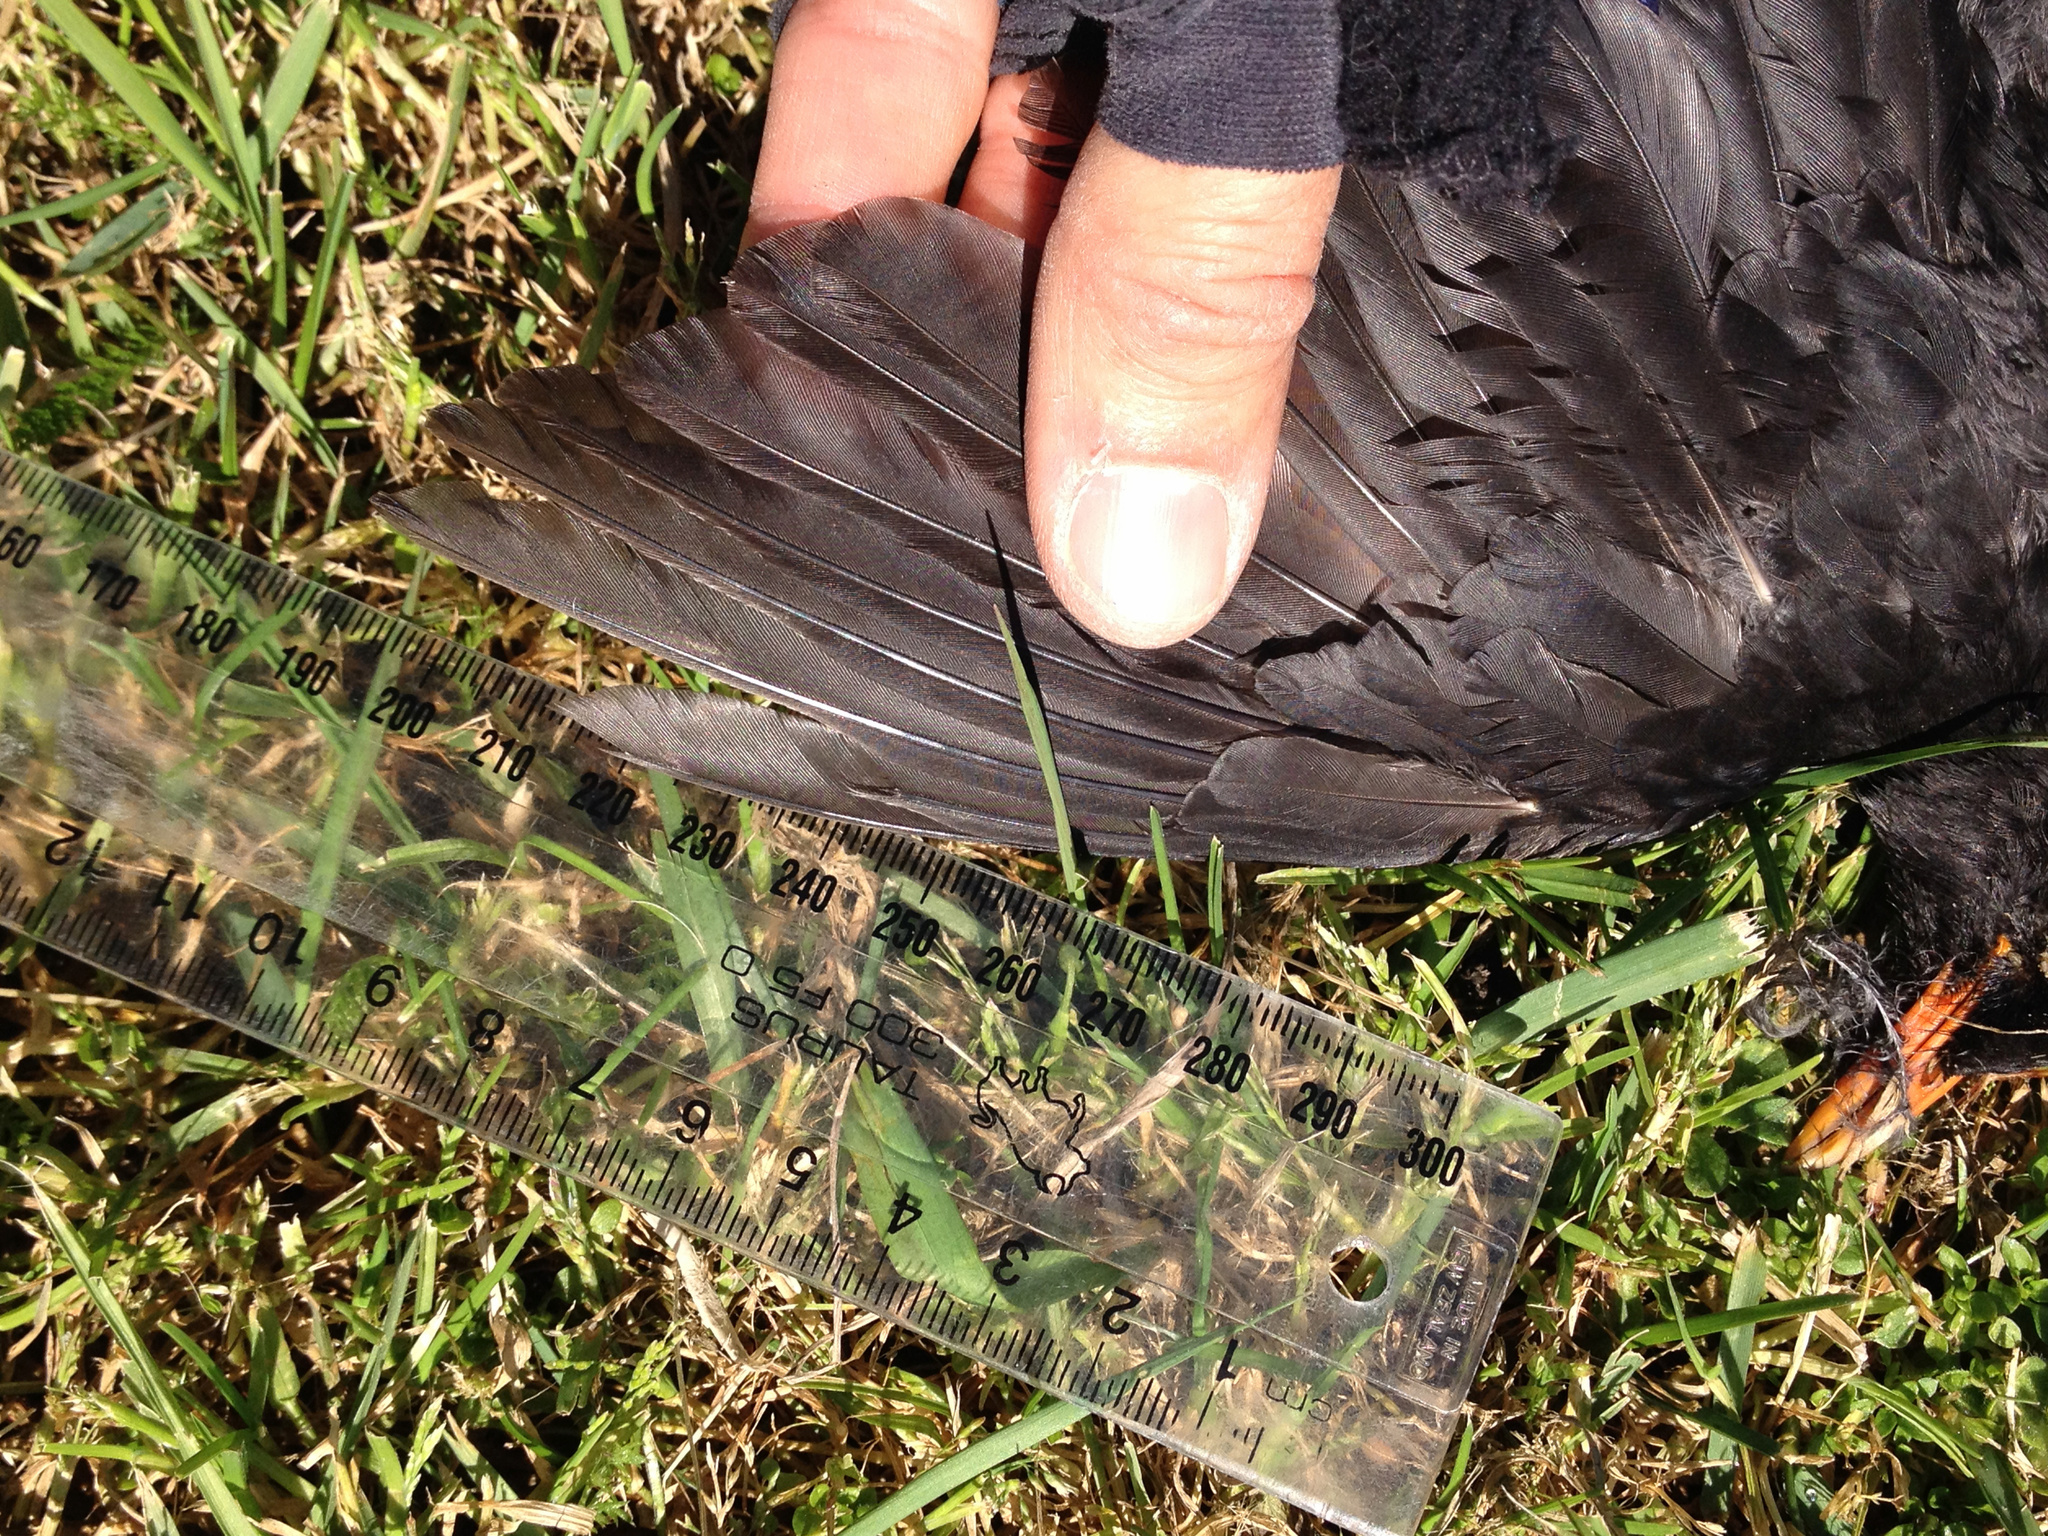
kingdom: Animalia
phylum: Chordata
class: Aves
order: Passeriformes
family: Turdidae
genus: Turdus
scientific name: Turdus merula
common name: Common blackbird
